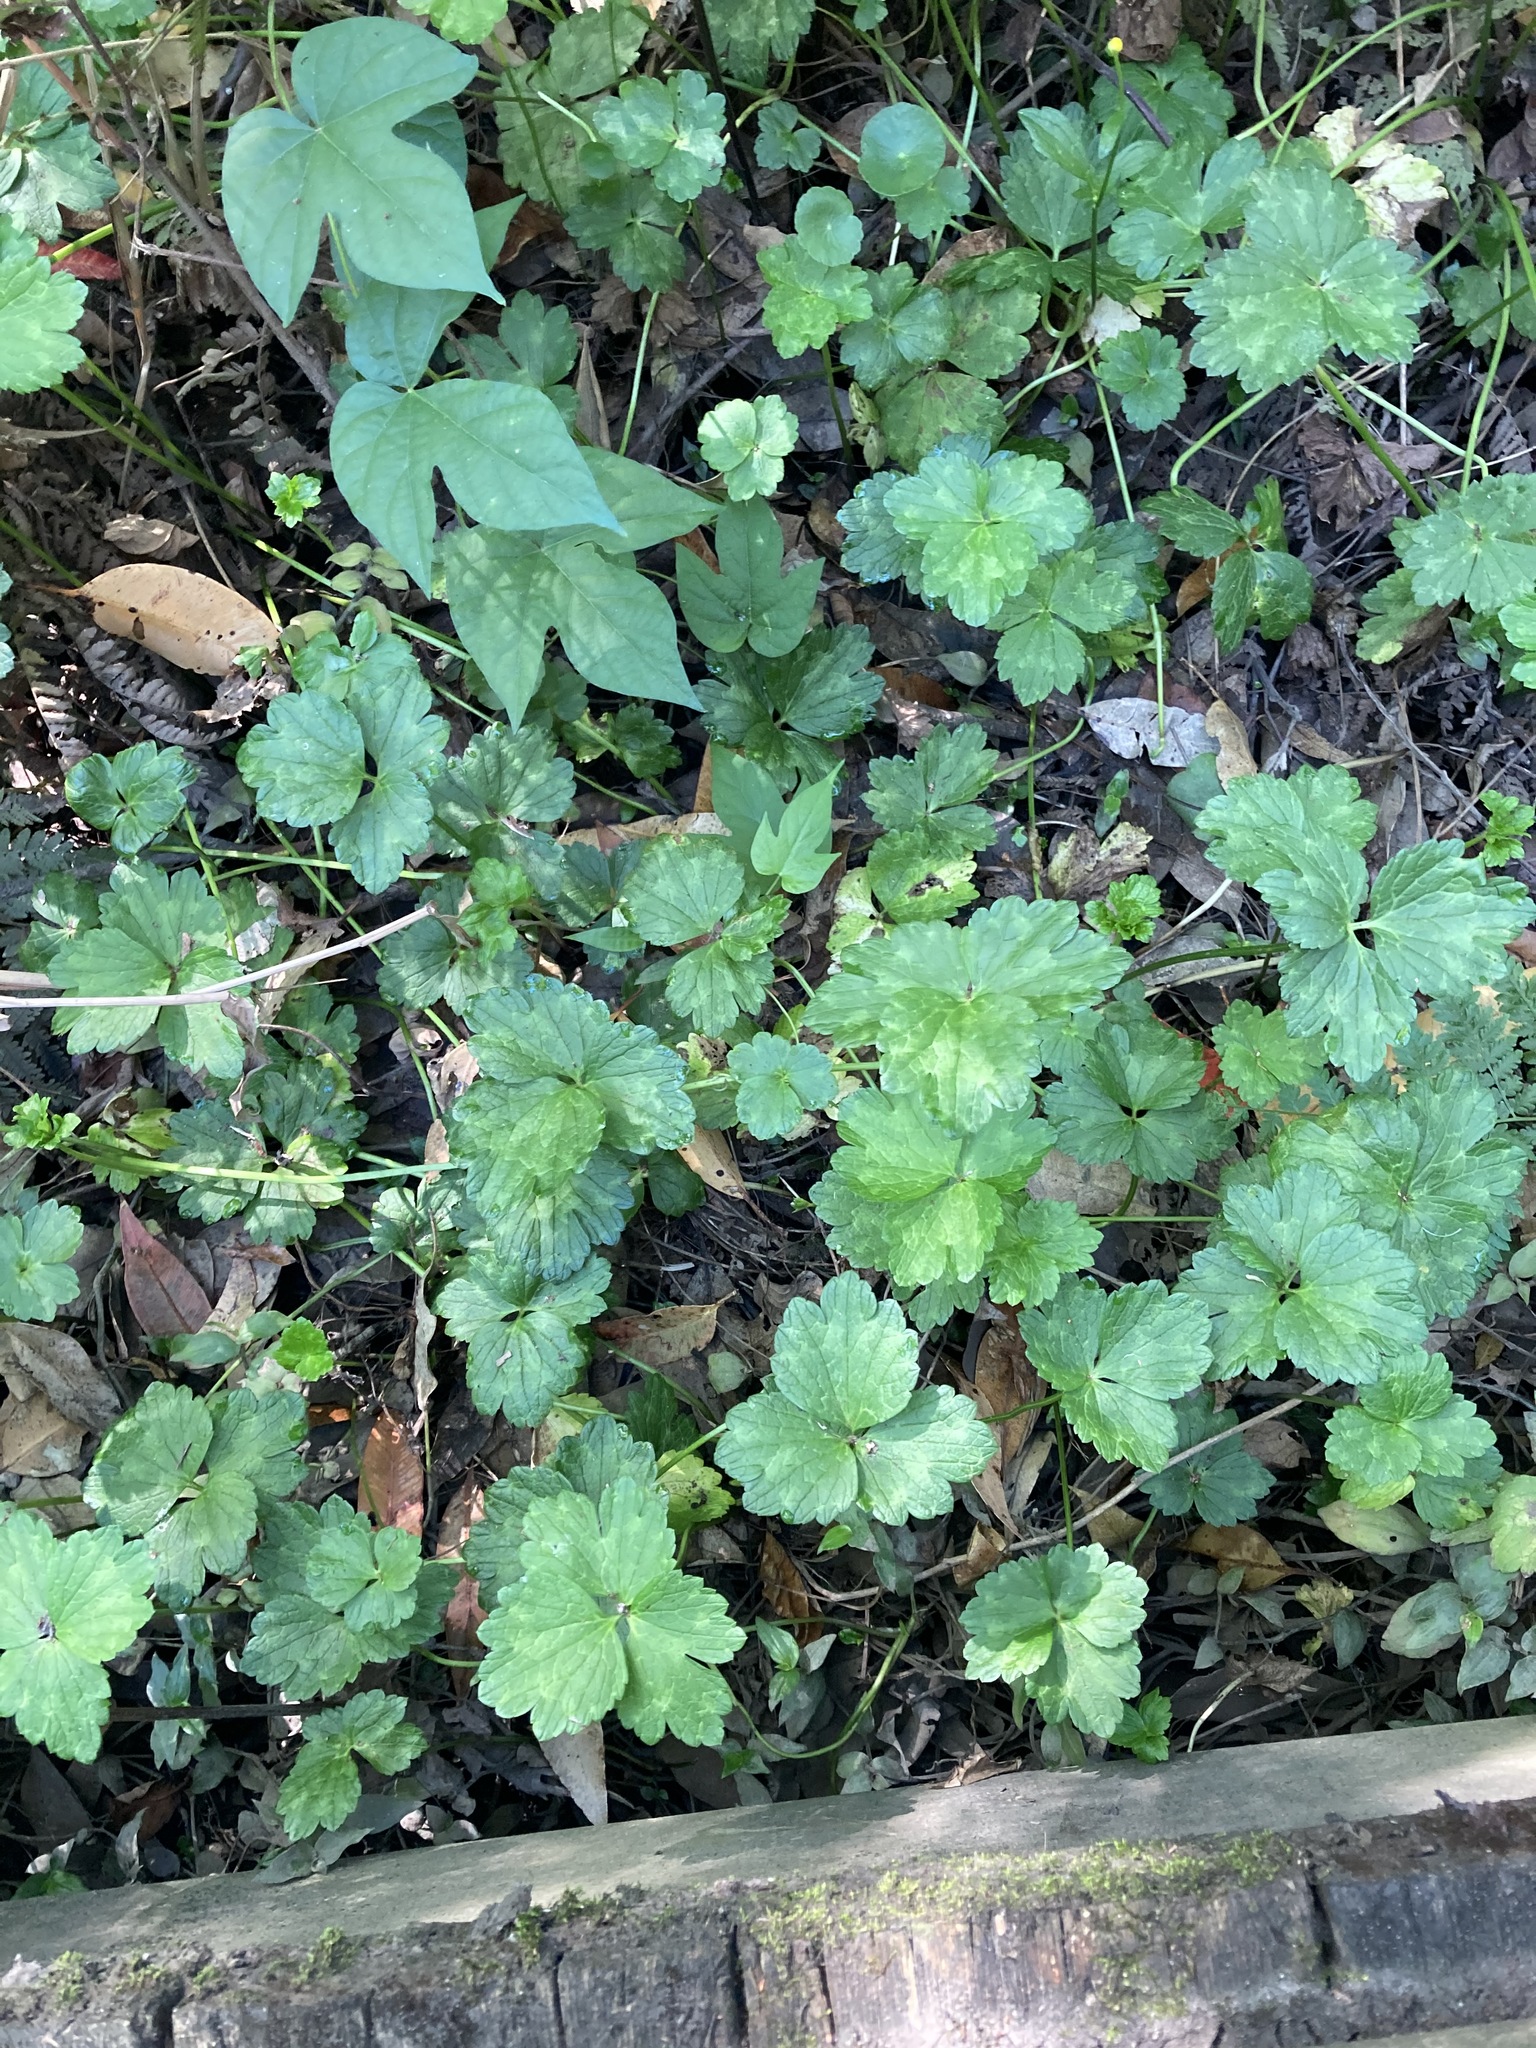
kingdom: Plantae
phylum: Tracheophyta
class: Magnoliopsida
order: Ranunculales
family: Ranunculaceae
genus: Ranunculus
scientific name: Ranunculus repens
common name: Creeping buttercup
